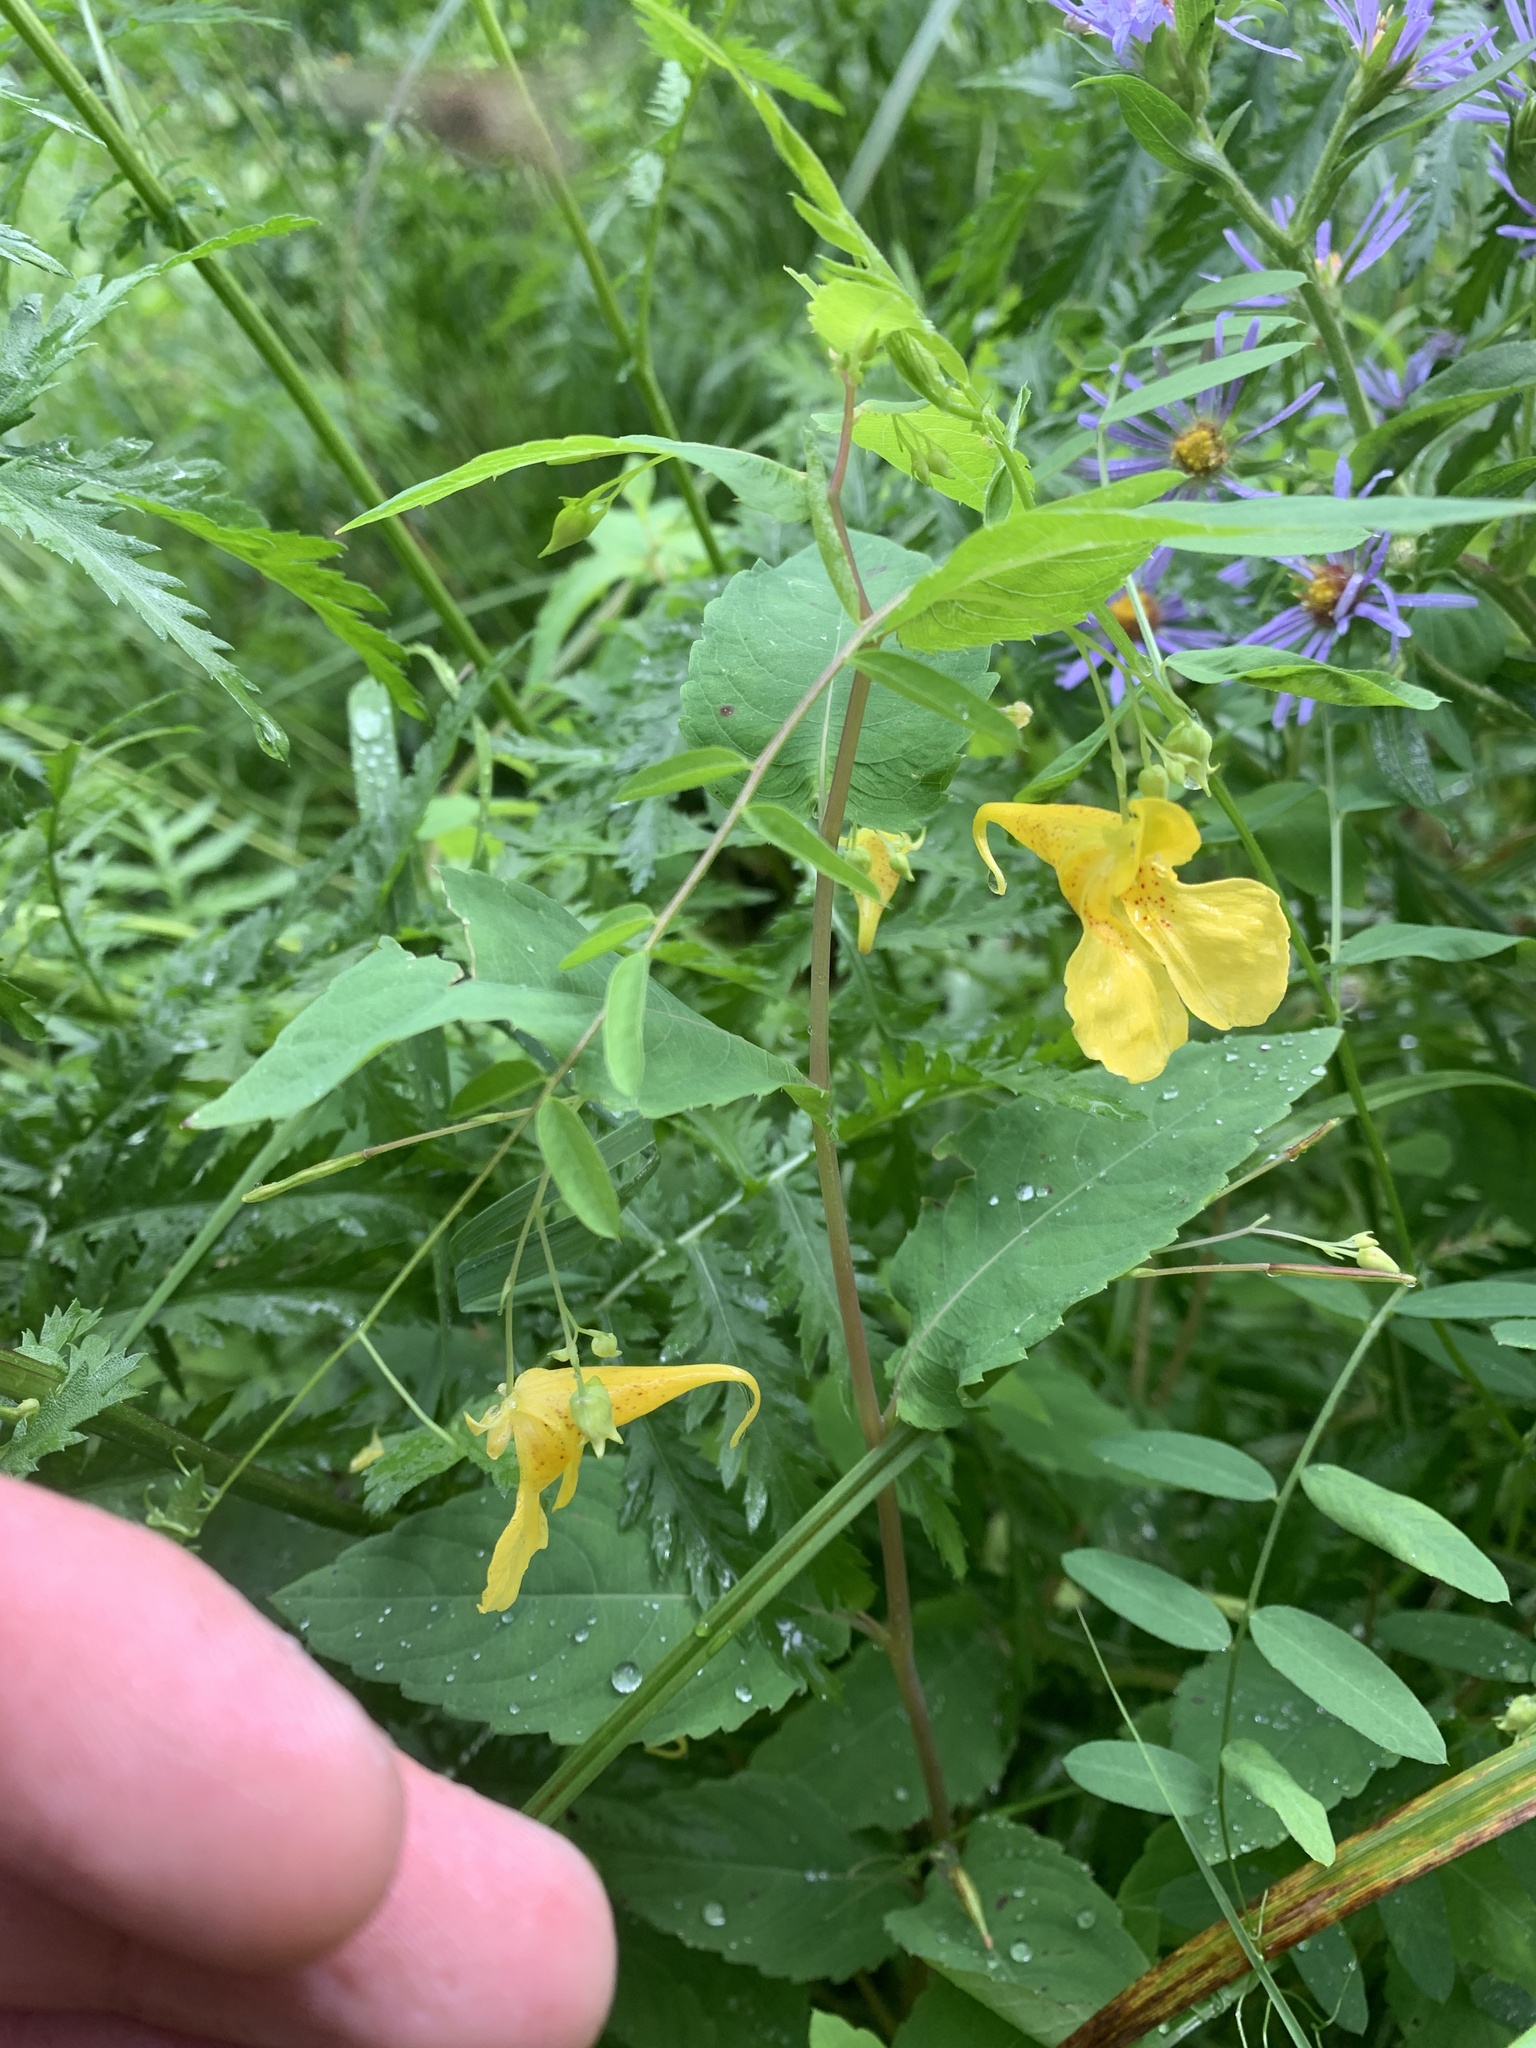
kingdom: Plantae
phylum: Tracheophyta
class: Magnoliopsida
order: Ericales
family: Balsaminaceae
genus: Impatiens
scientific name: Impatiens noli-tangere
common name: Touch-me-not balsam
